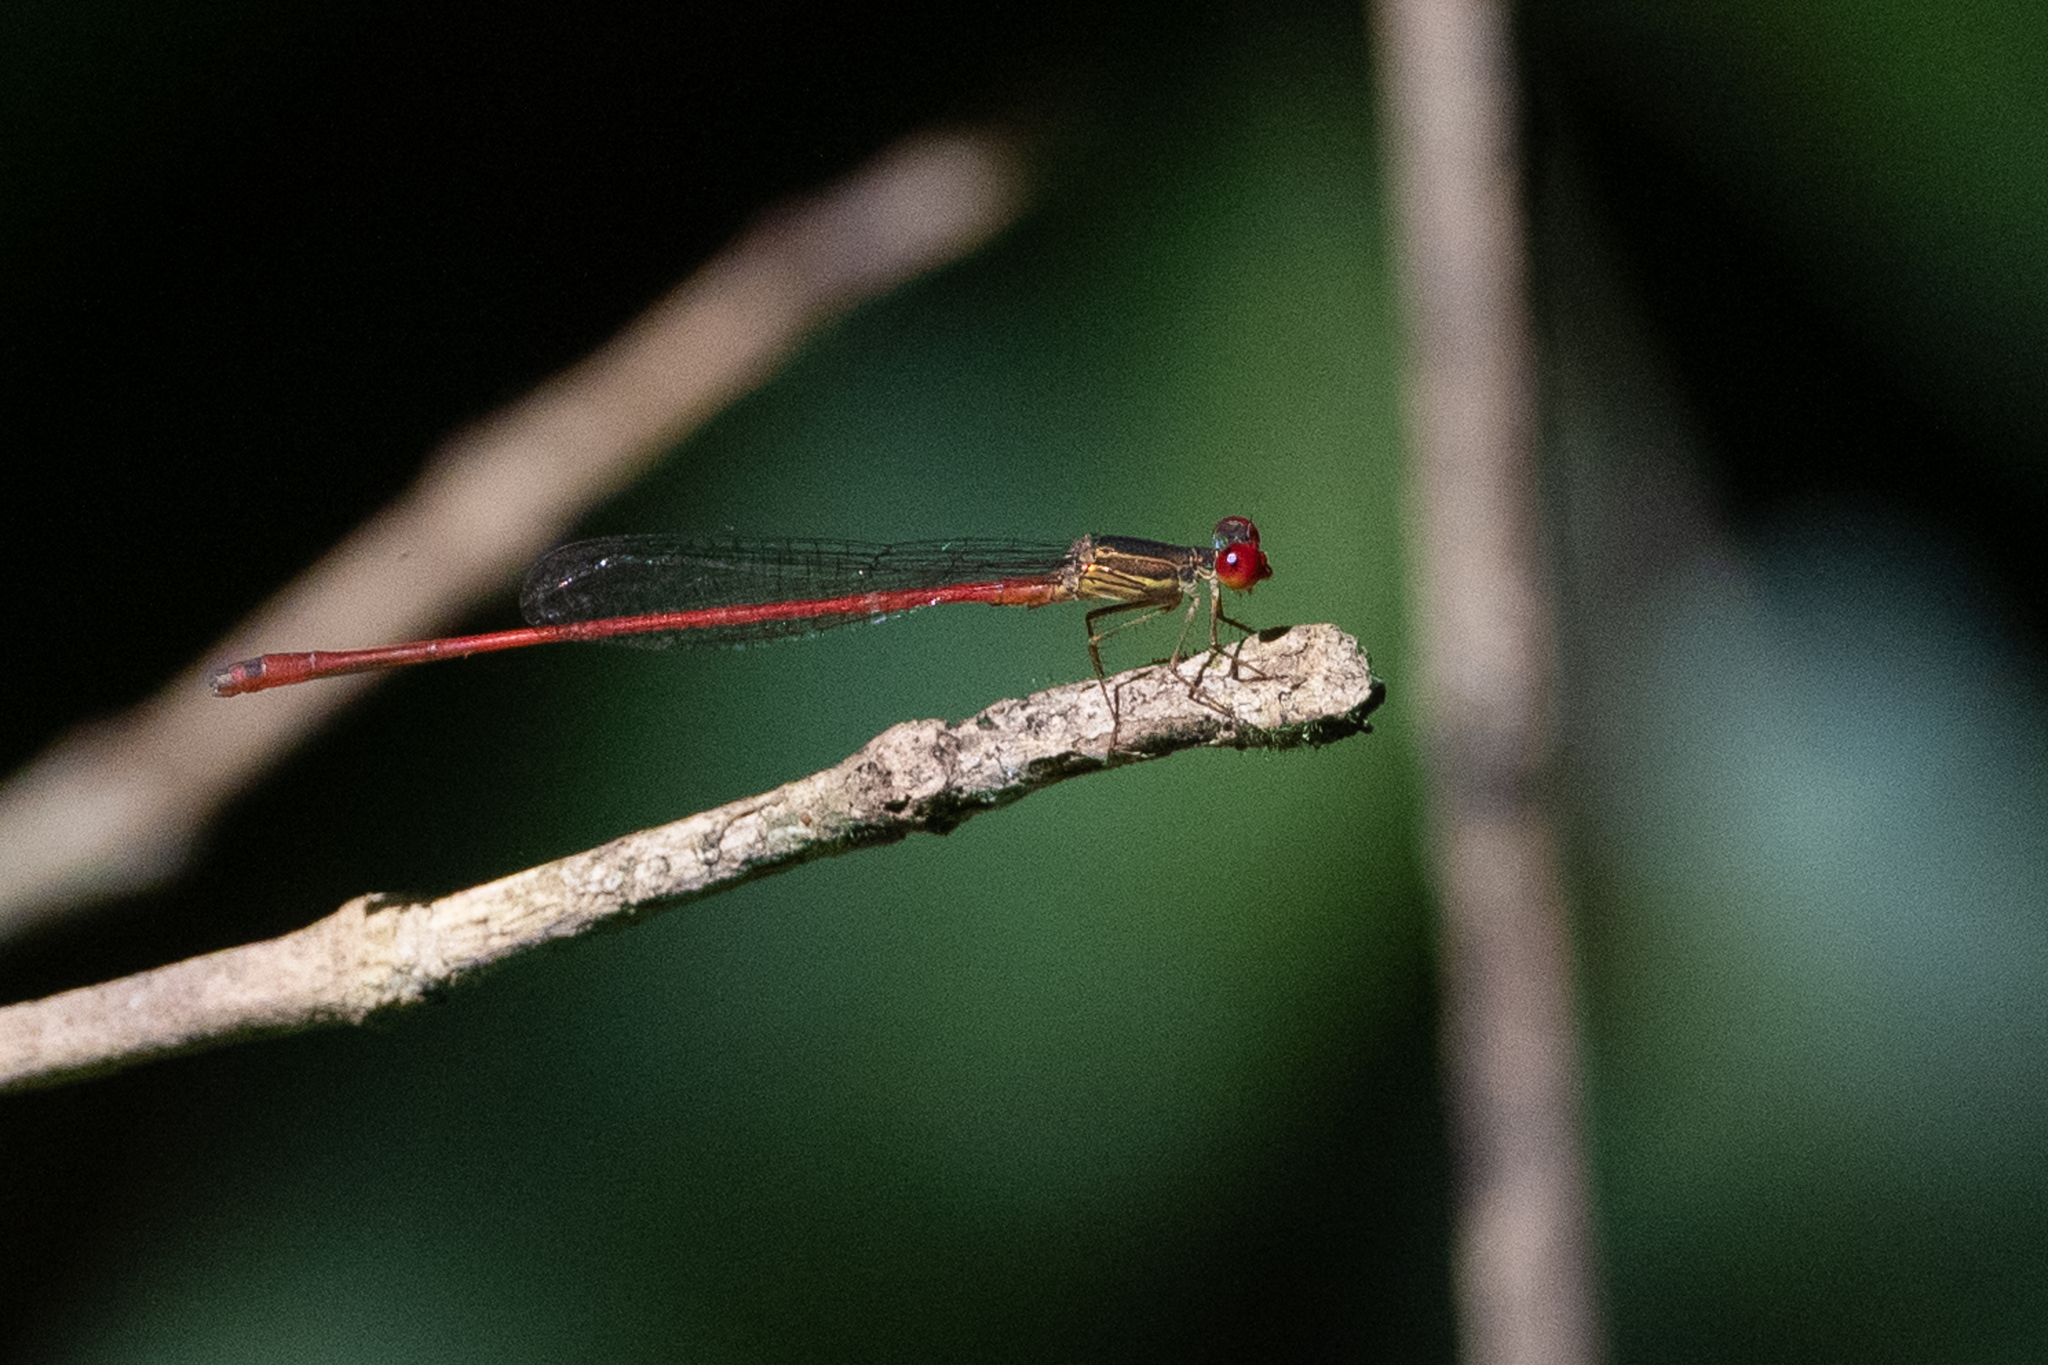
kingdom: Animalia
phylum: Arthropoda
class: Insecta
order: Odonata
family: Coenagrionidae
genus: Telebasis
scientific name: Telebasis vulnerata
